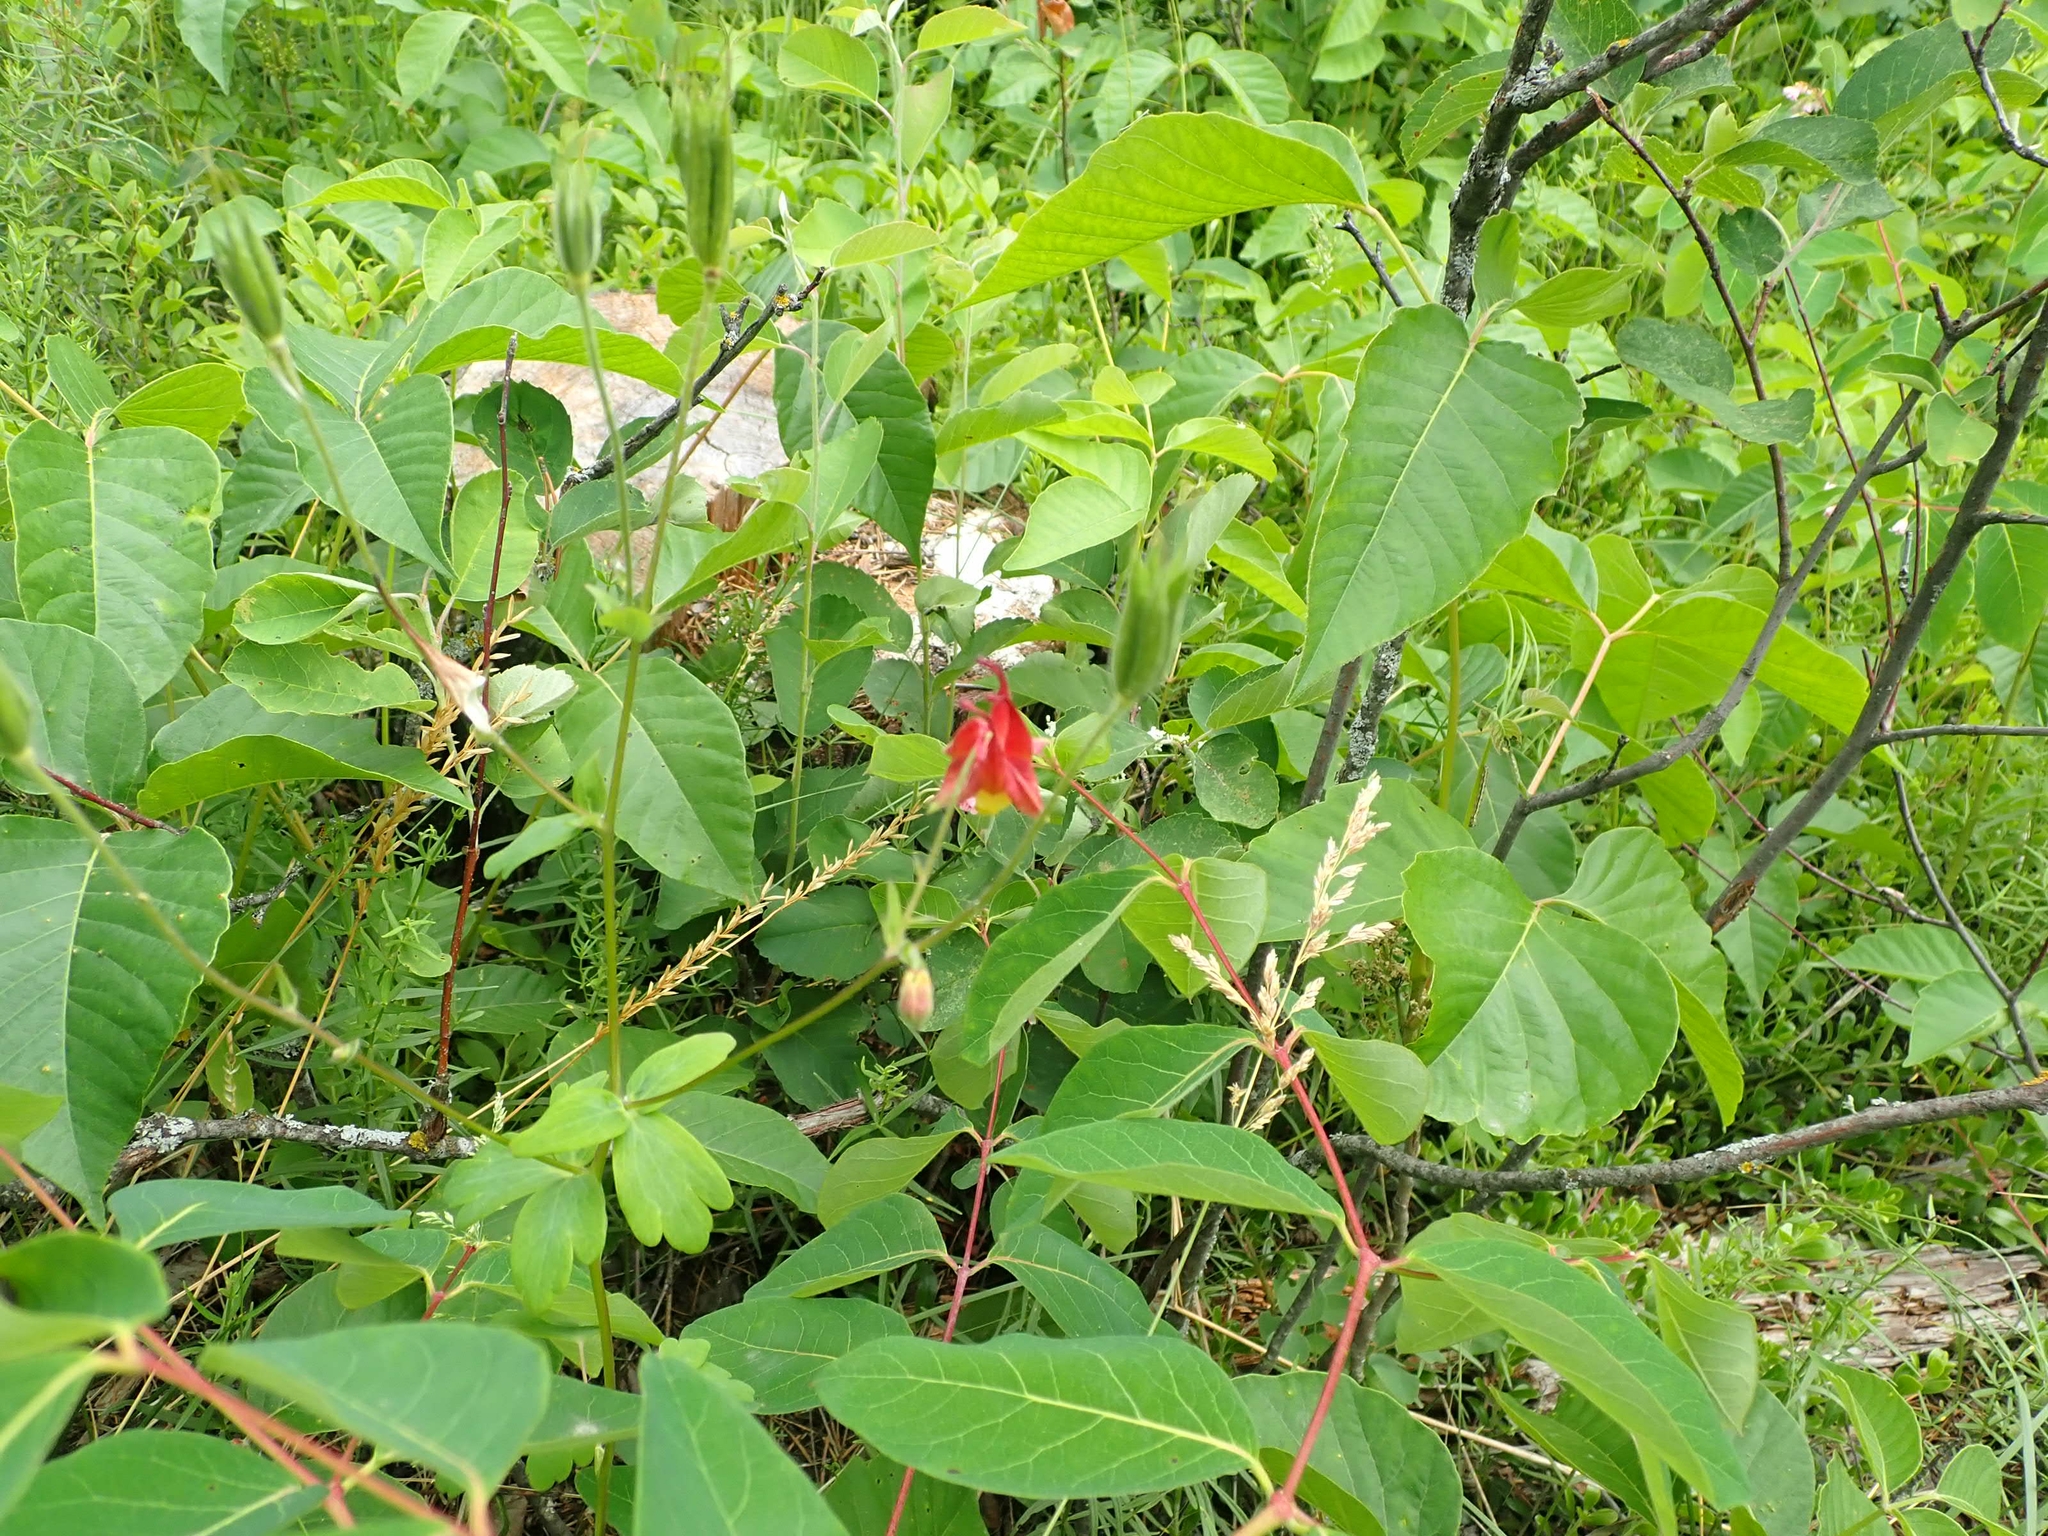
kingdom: Plantae
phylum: Tracheophyta
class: Magnoliopsida
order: Ranunculales
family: Ranunculaceae
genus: Aquilegia
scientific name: Aquilegia canadensis
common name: American columbine
